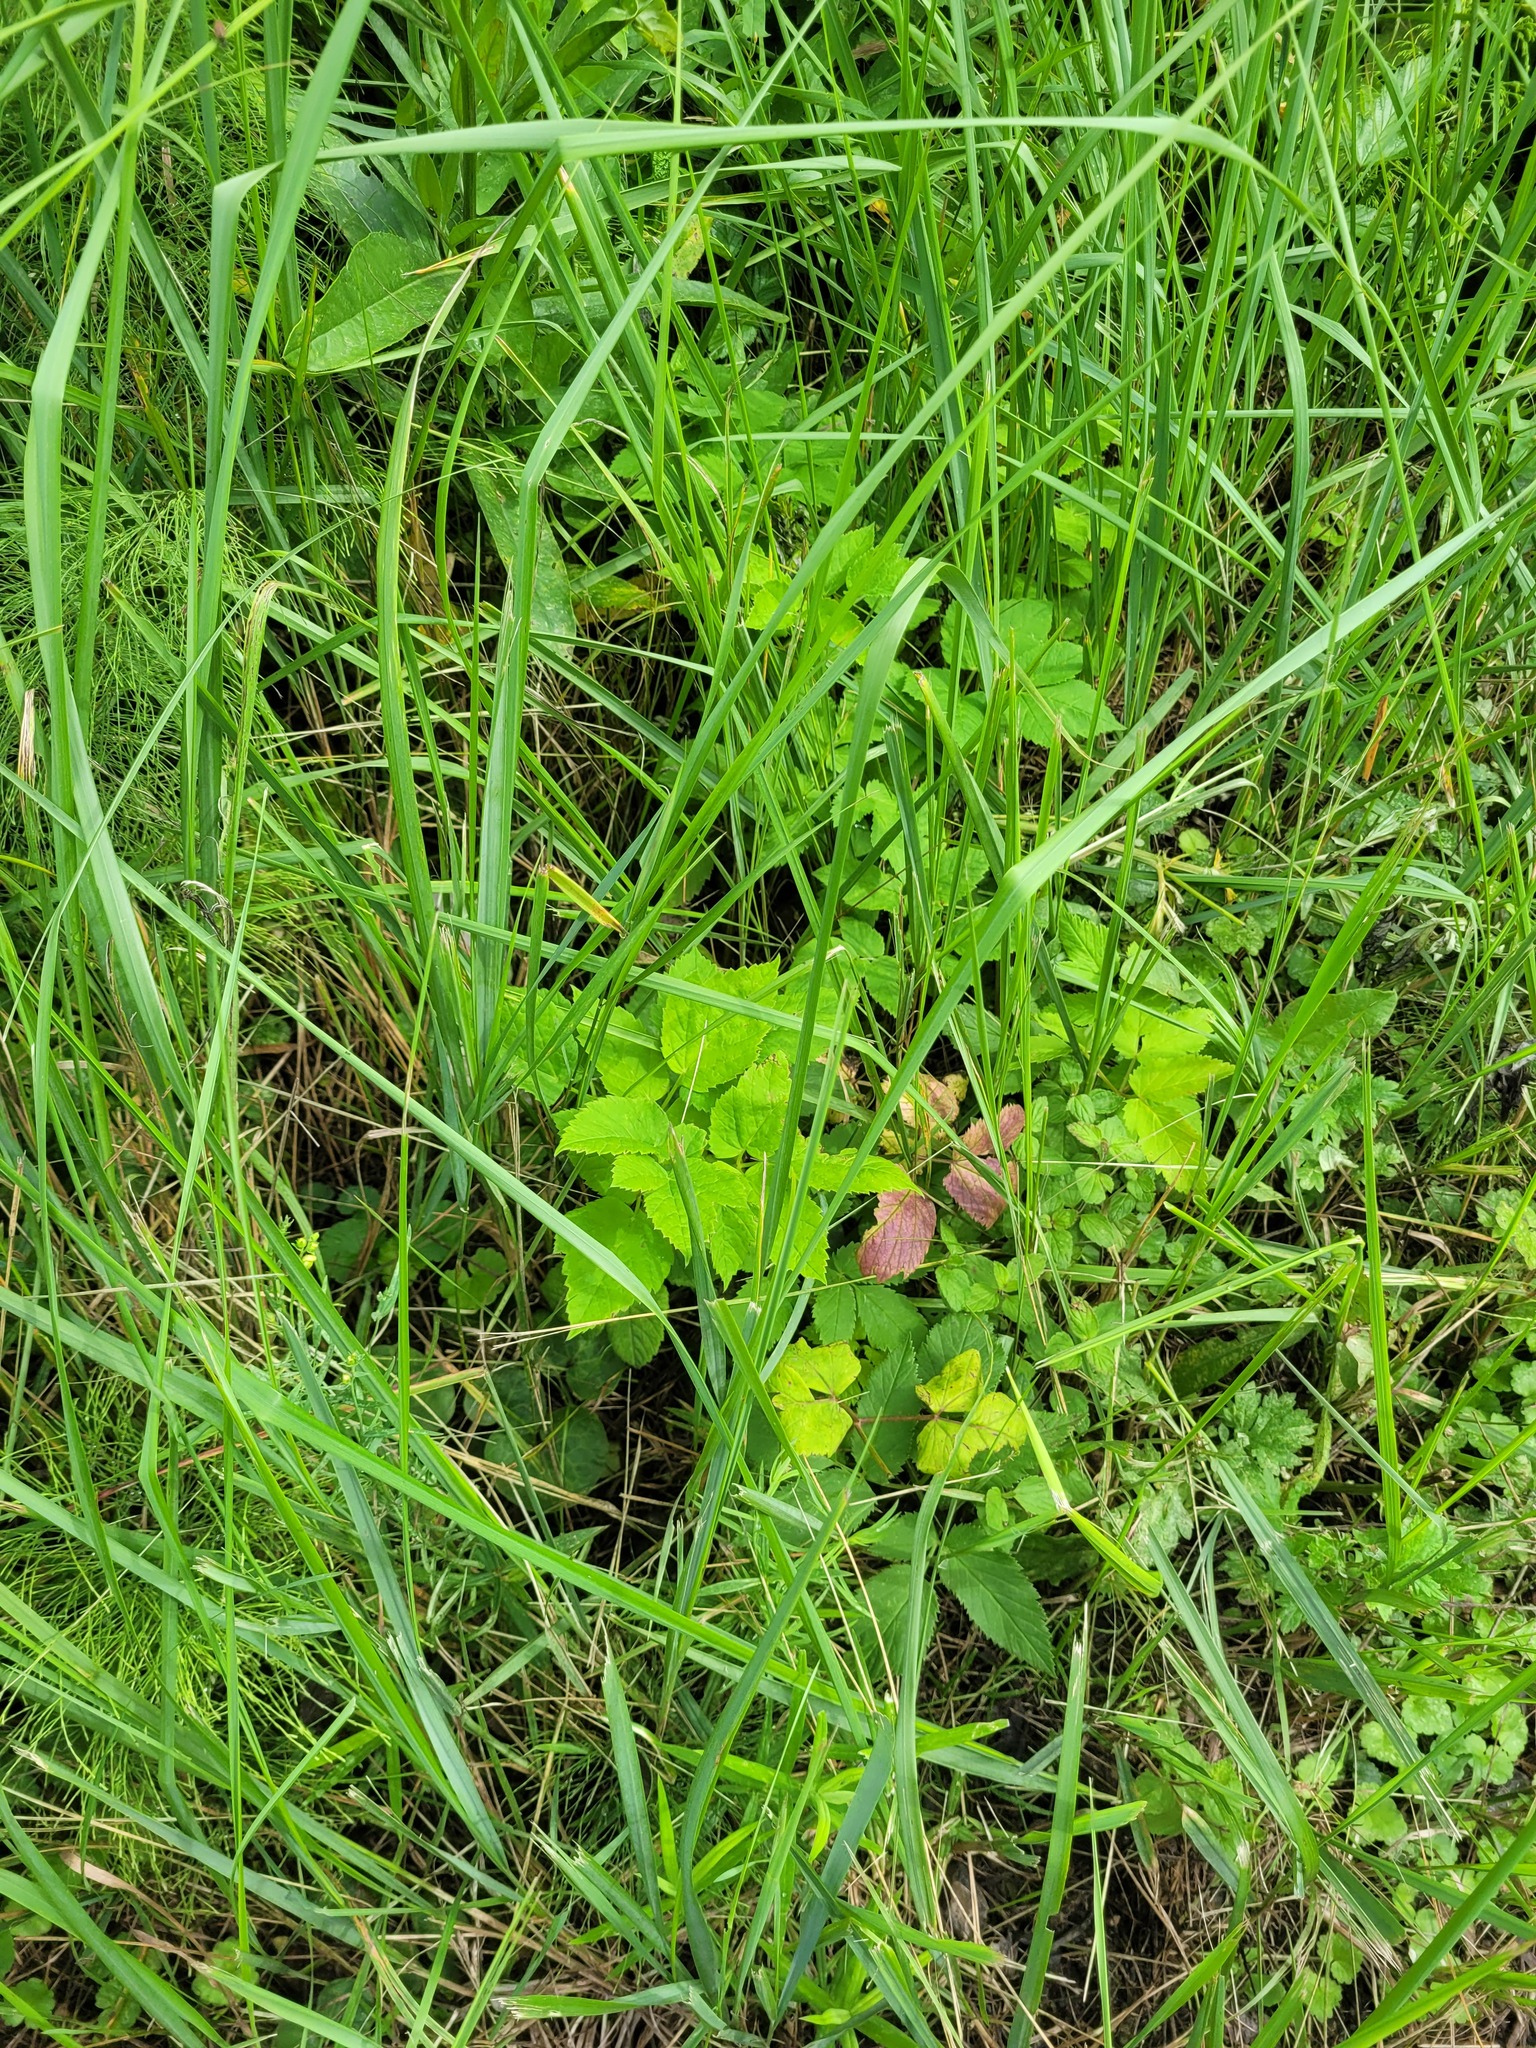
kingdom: Plantae
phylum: Tracheophyta
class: Magnoliopsida
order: Apiales
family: Apiaceae
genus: Aegopodium
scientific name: Aegopodium podagraria
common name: Ground-elder
